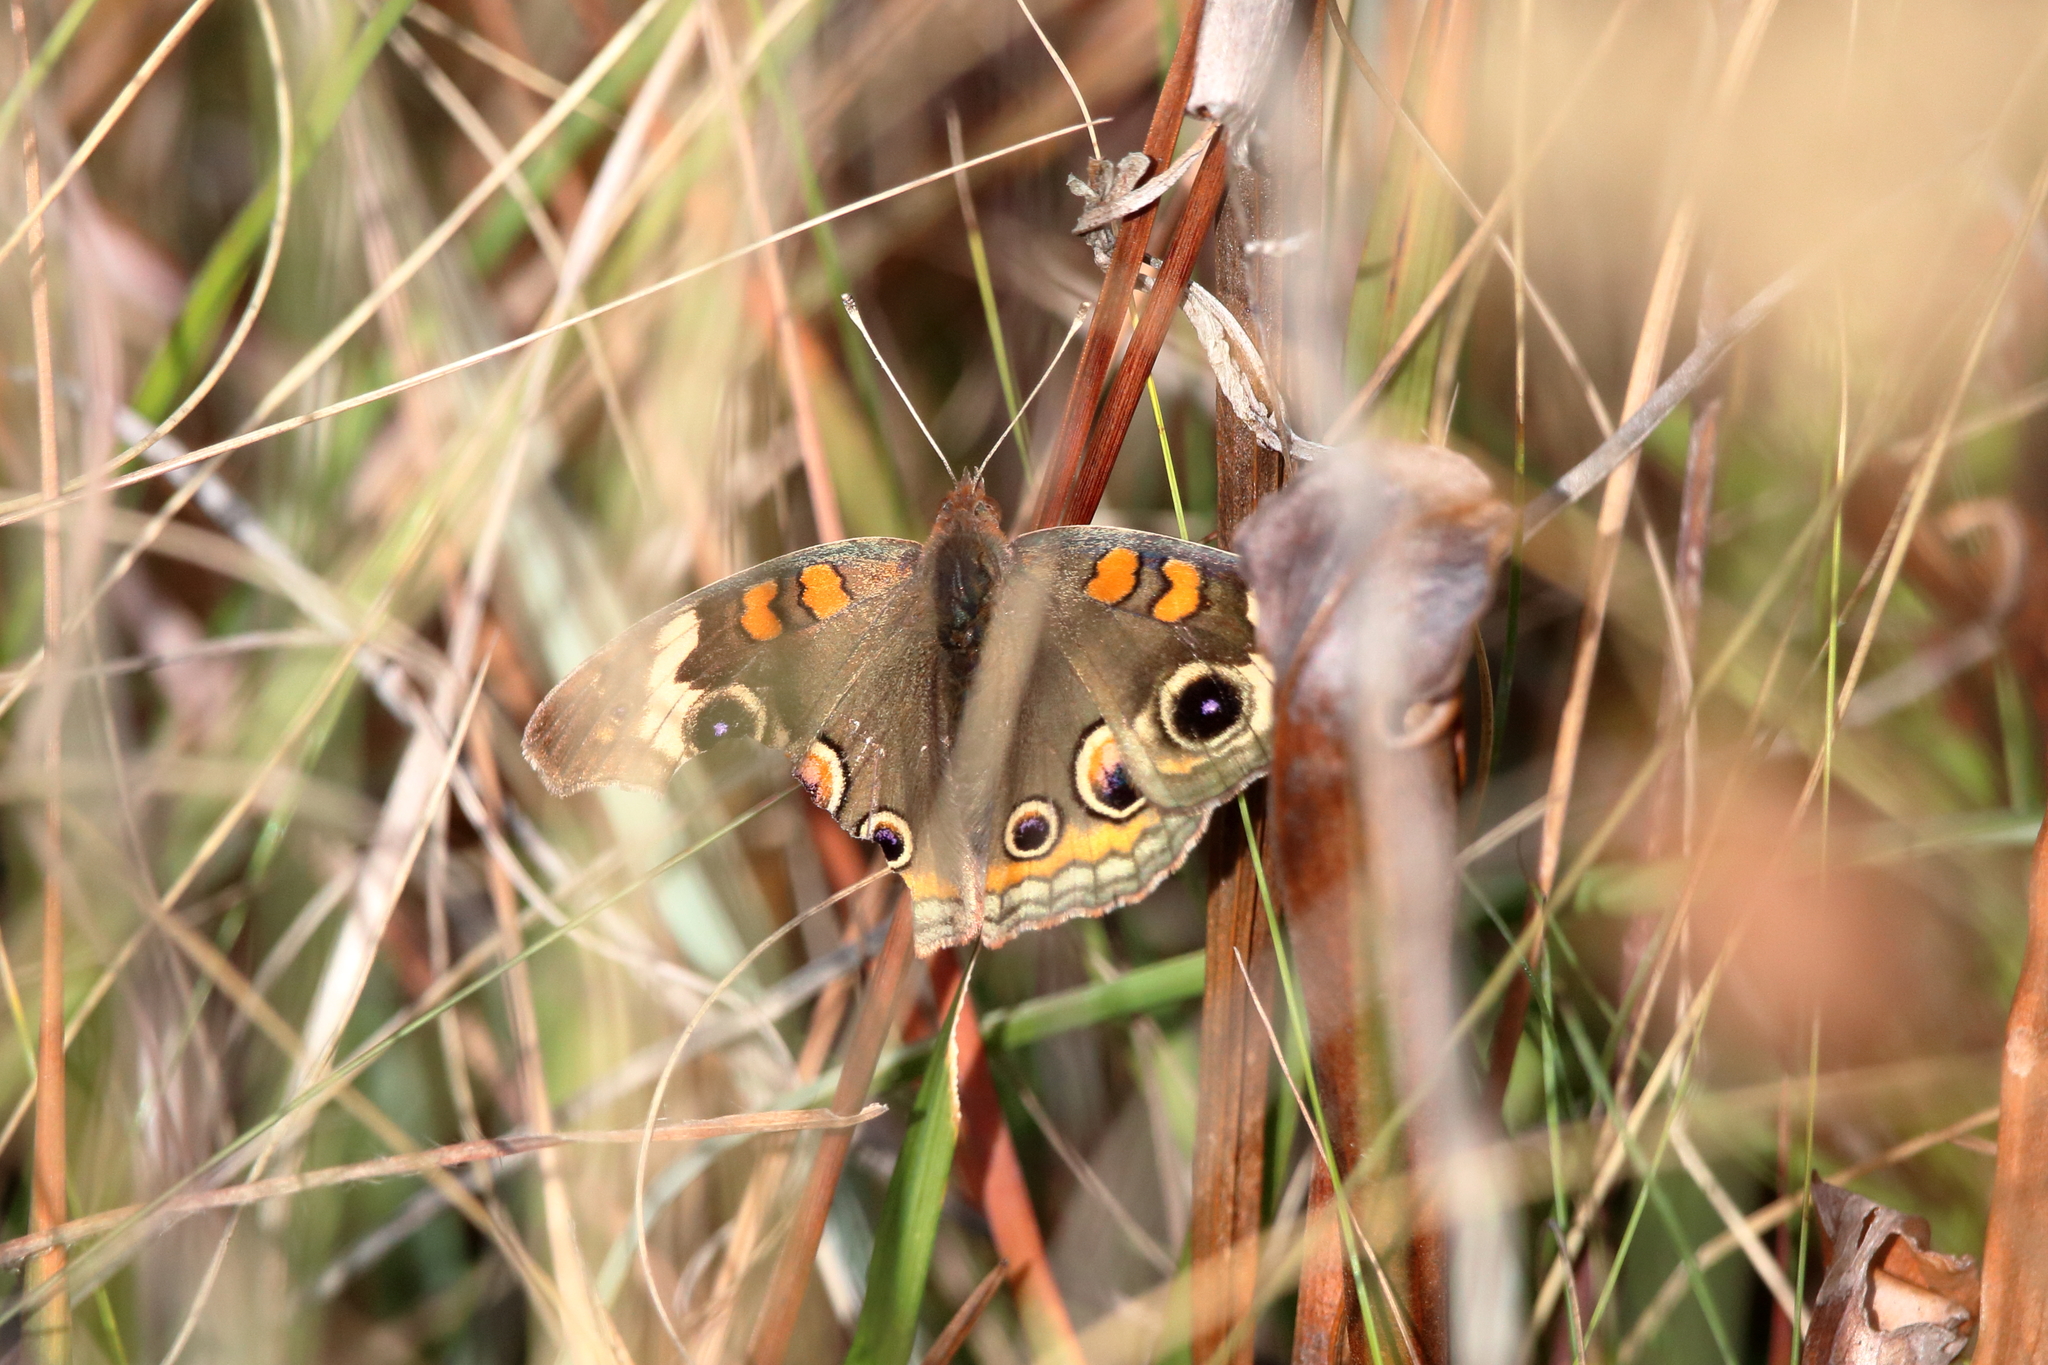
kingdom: Animalia
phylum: Arthropoda
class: Insecta
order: Lepidoptera
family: Nymphalidae
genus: Junonia
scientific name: Junonia coenia
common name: Common buckeye
